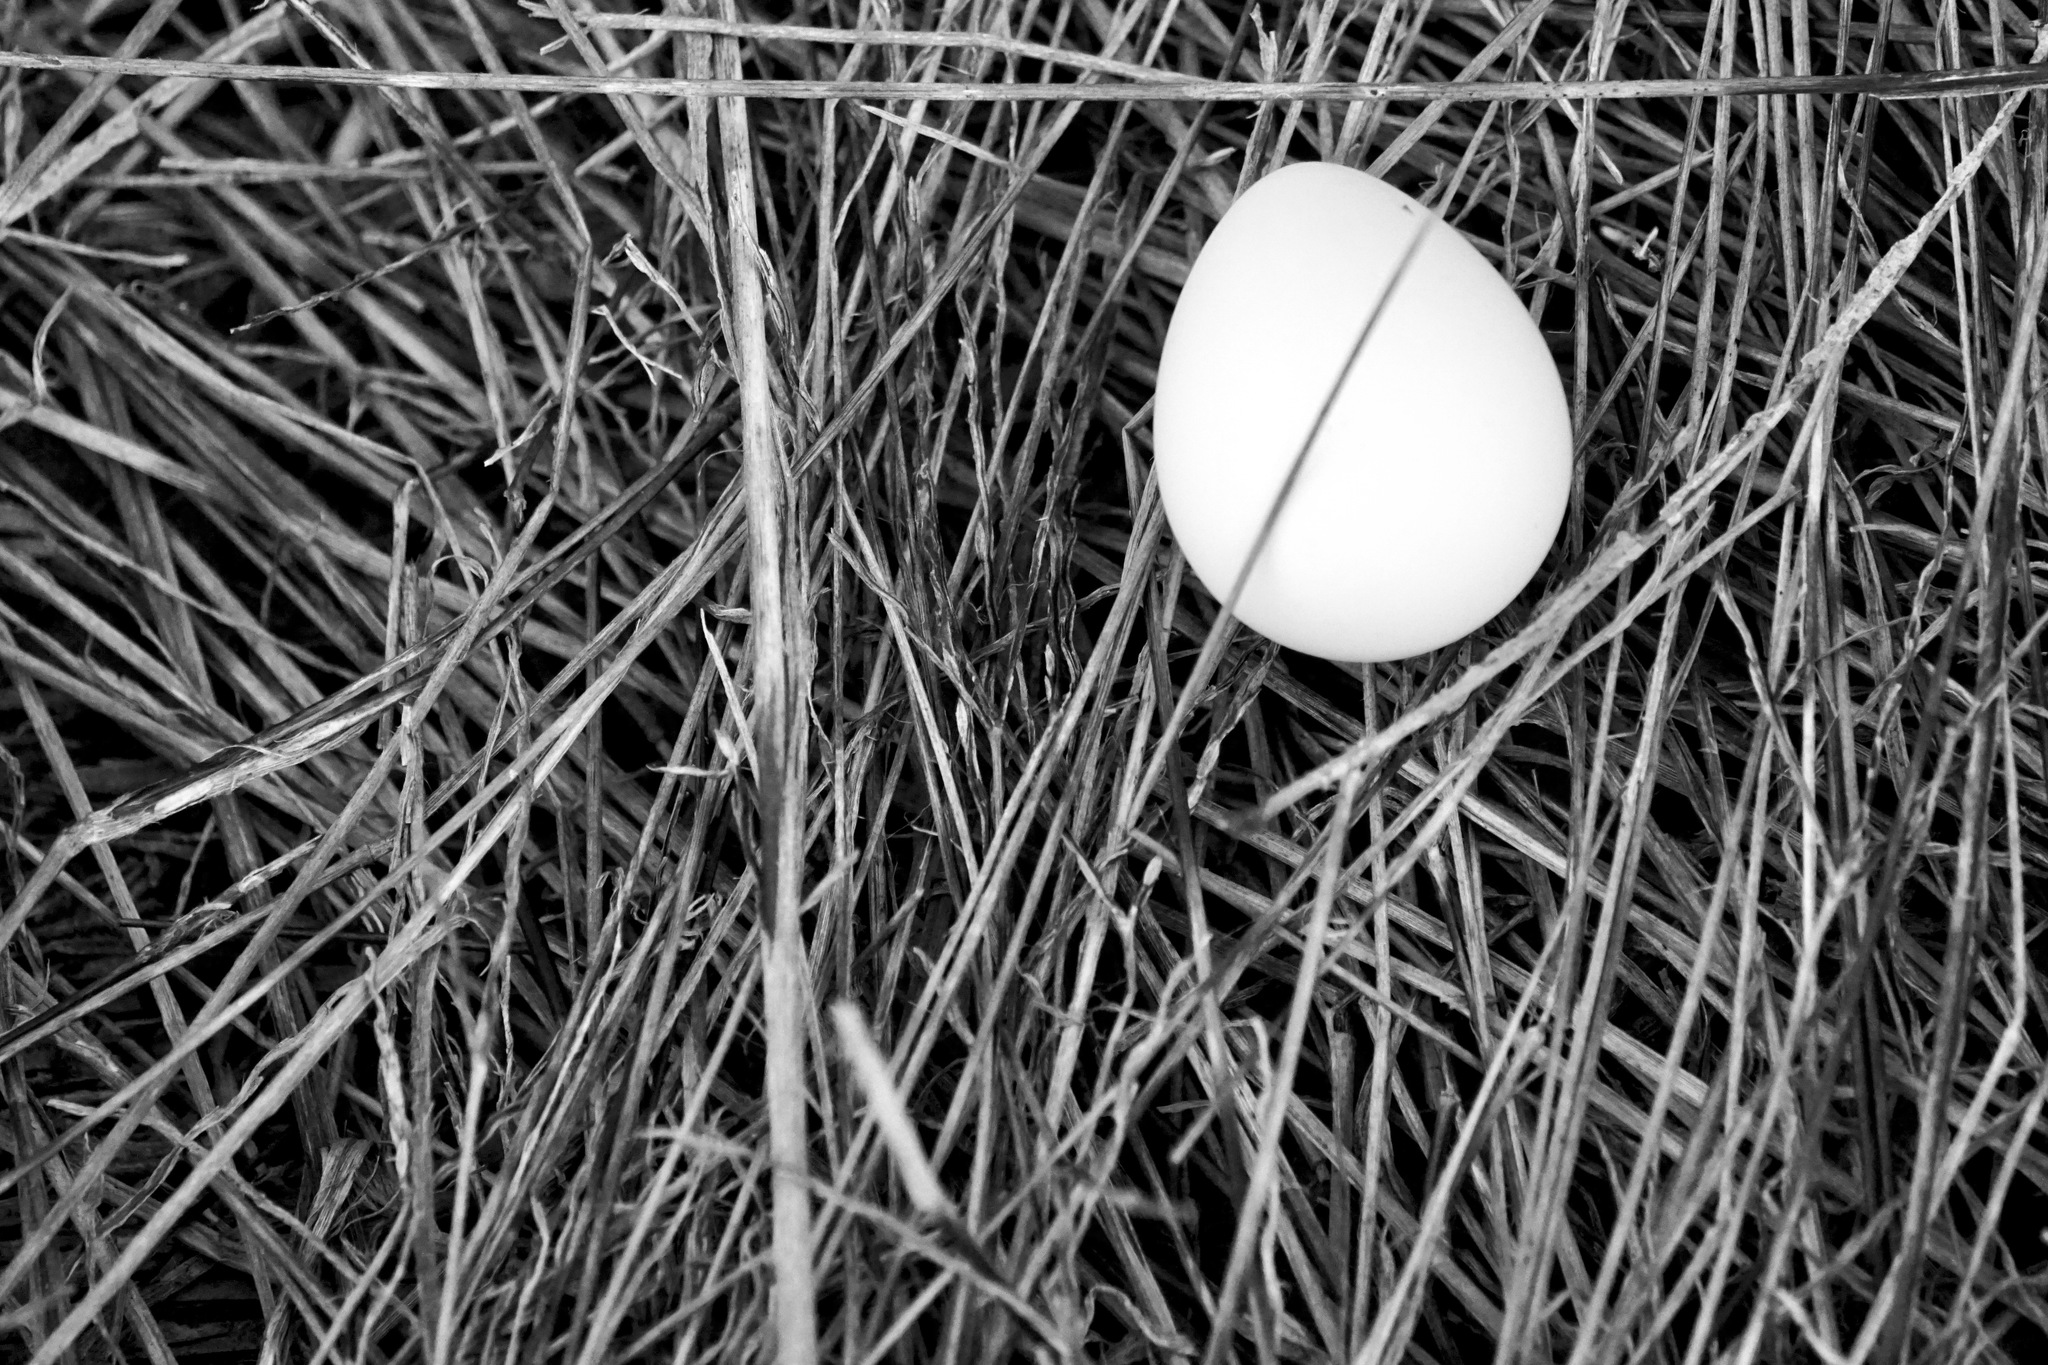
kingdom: Animalia
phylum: Chordata
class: Aves
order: Galliformes
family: Odontophoridae
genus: Colinus
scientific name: Colinus virginianus
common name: Northern bobwhite
